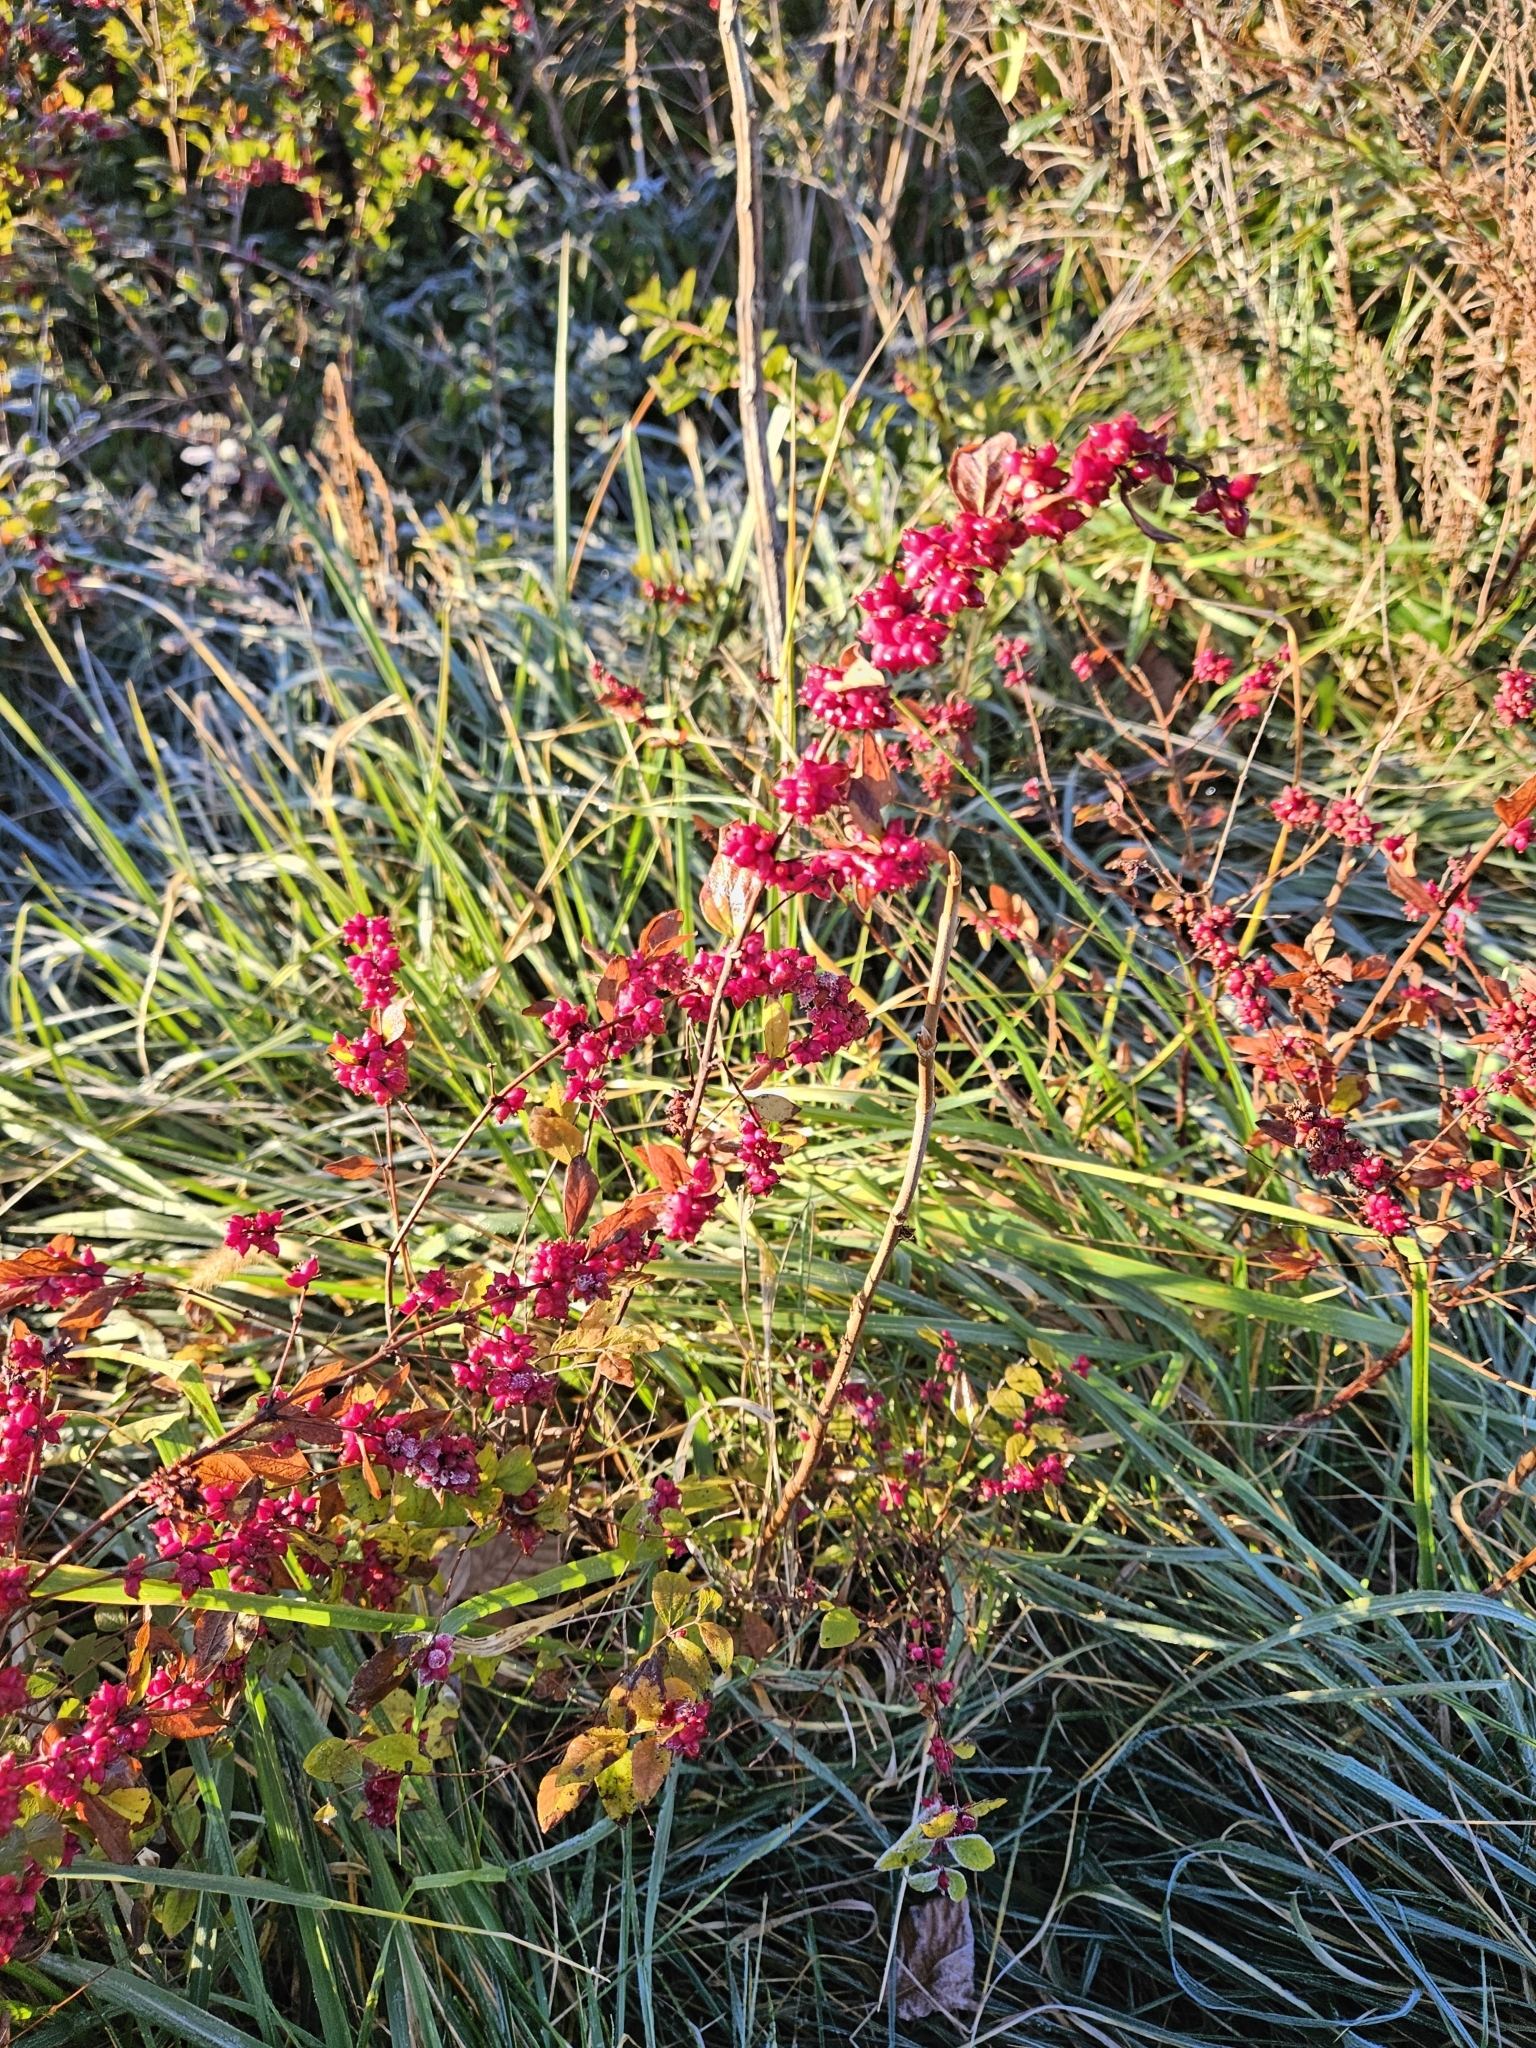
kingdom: Plantae
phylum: Tracheophyta
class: Magnoliopsida
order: Dipsacales
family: Caprifoliaceae
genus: Symphoricarpos
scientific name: Symphoricarpos orbiculatus
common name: Coralberry
